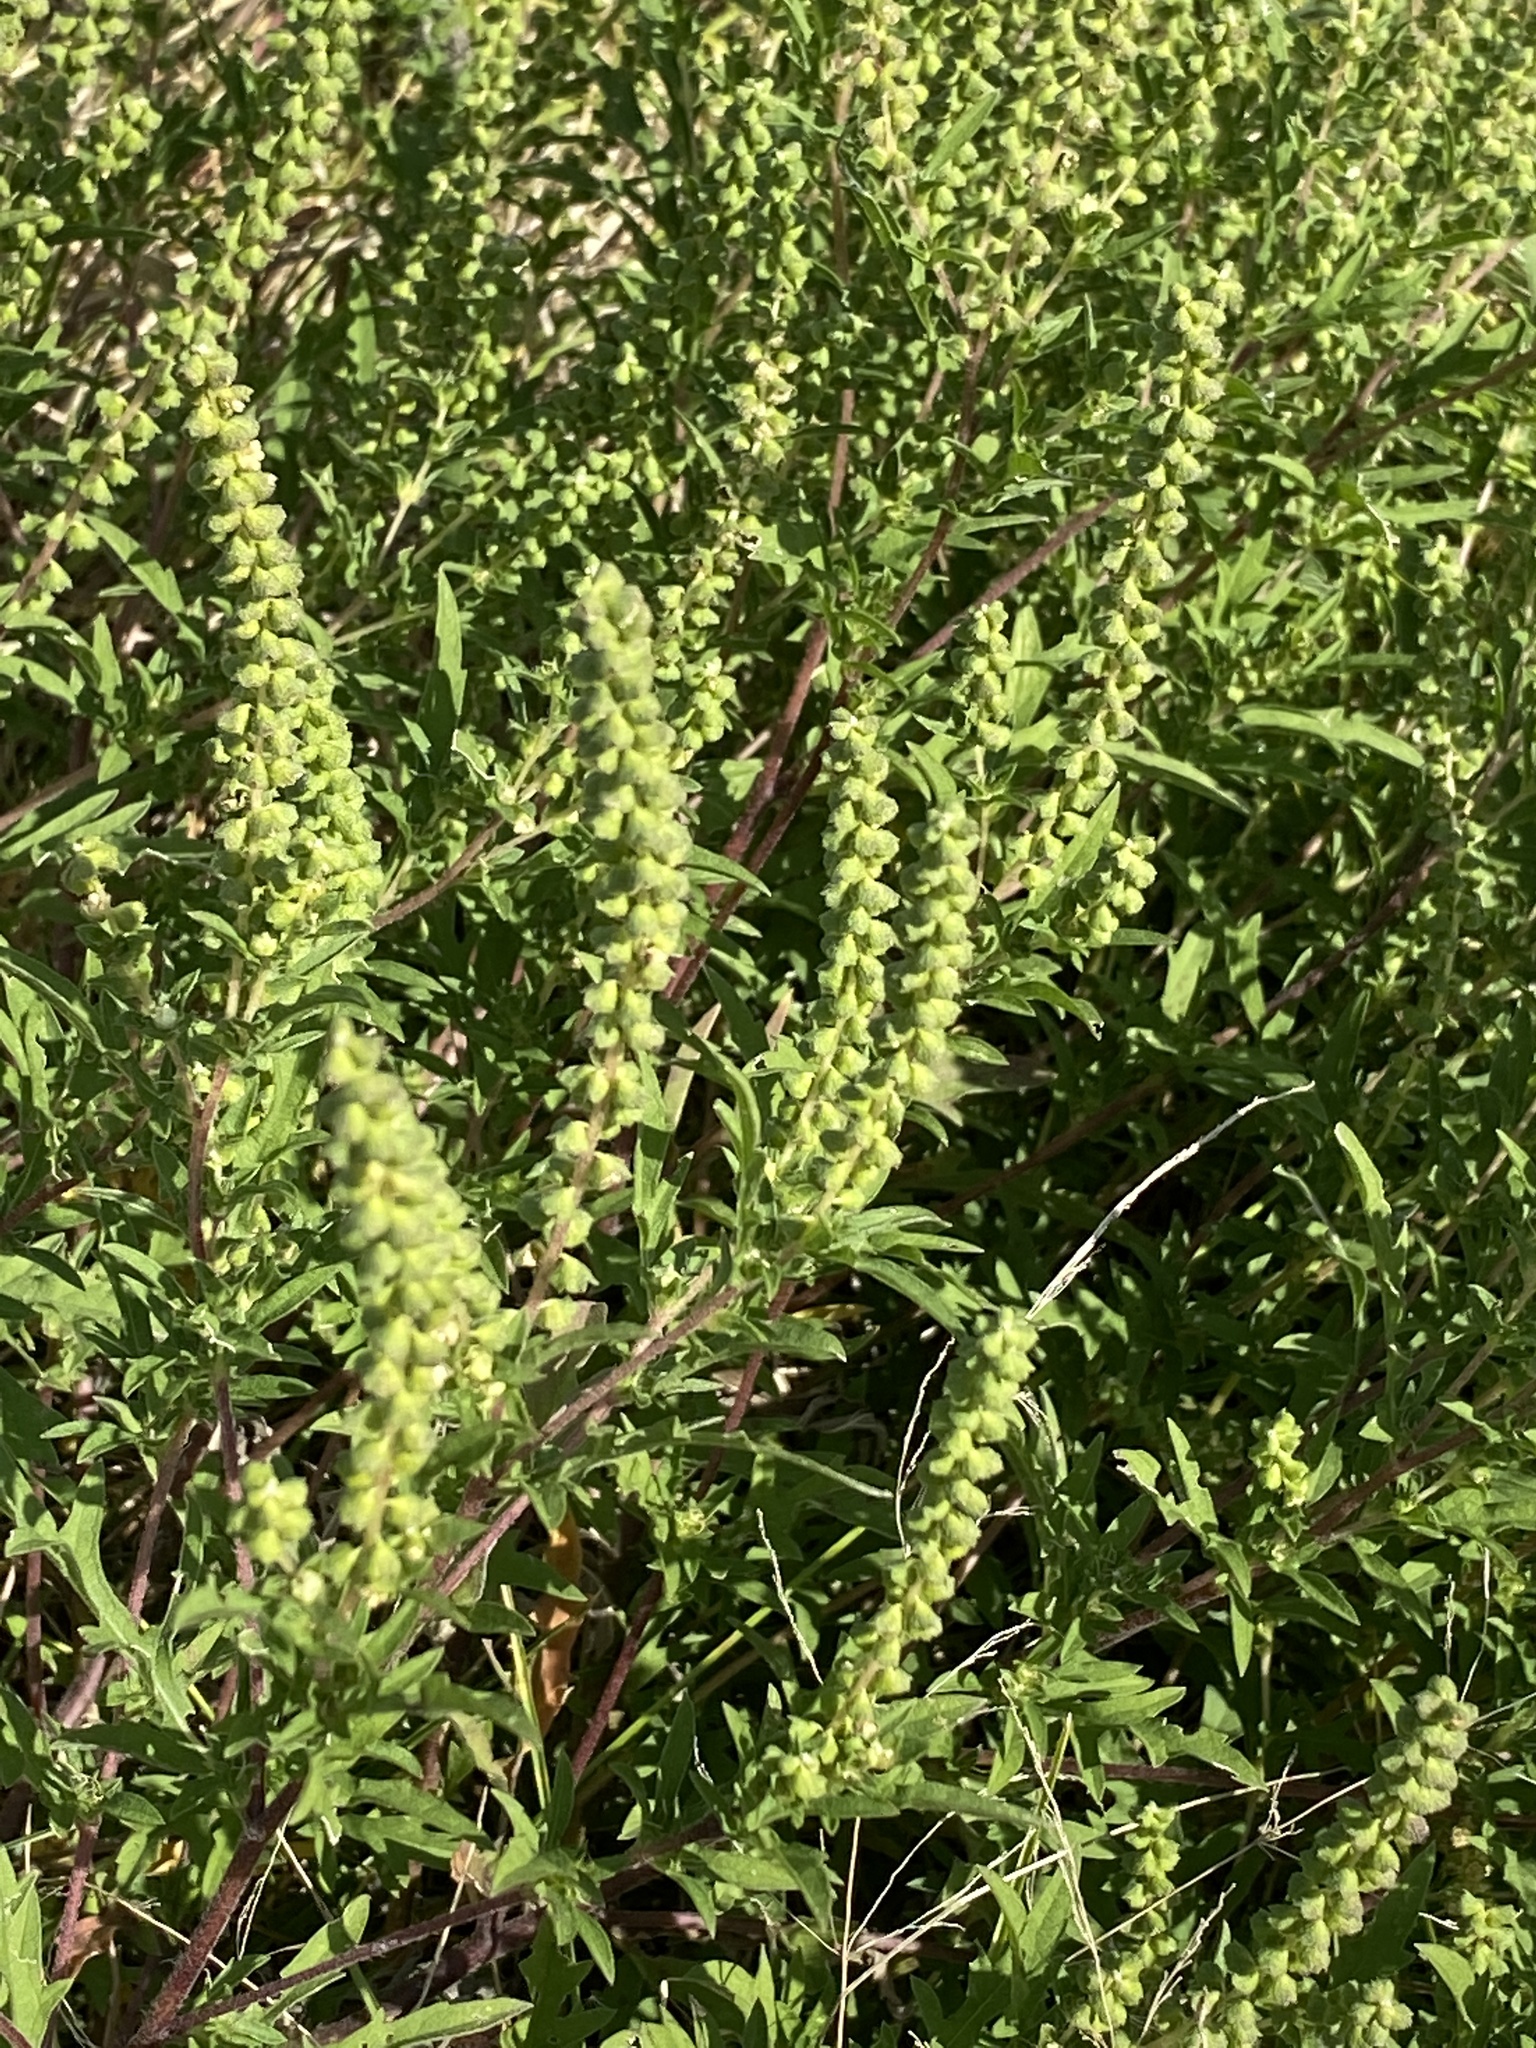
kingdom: Plantae
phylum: Tracheophyta
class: Magnoliopsida
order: Asterales
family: Asteraceae
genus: Ambrosia
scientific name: Ambrosia artemisiifolia
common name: Annual ragweed
